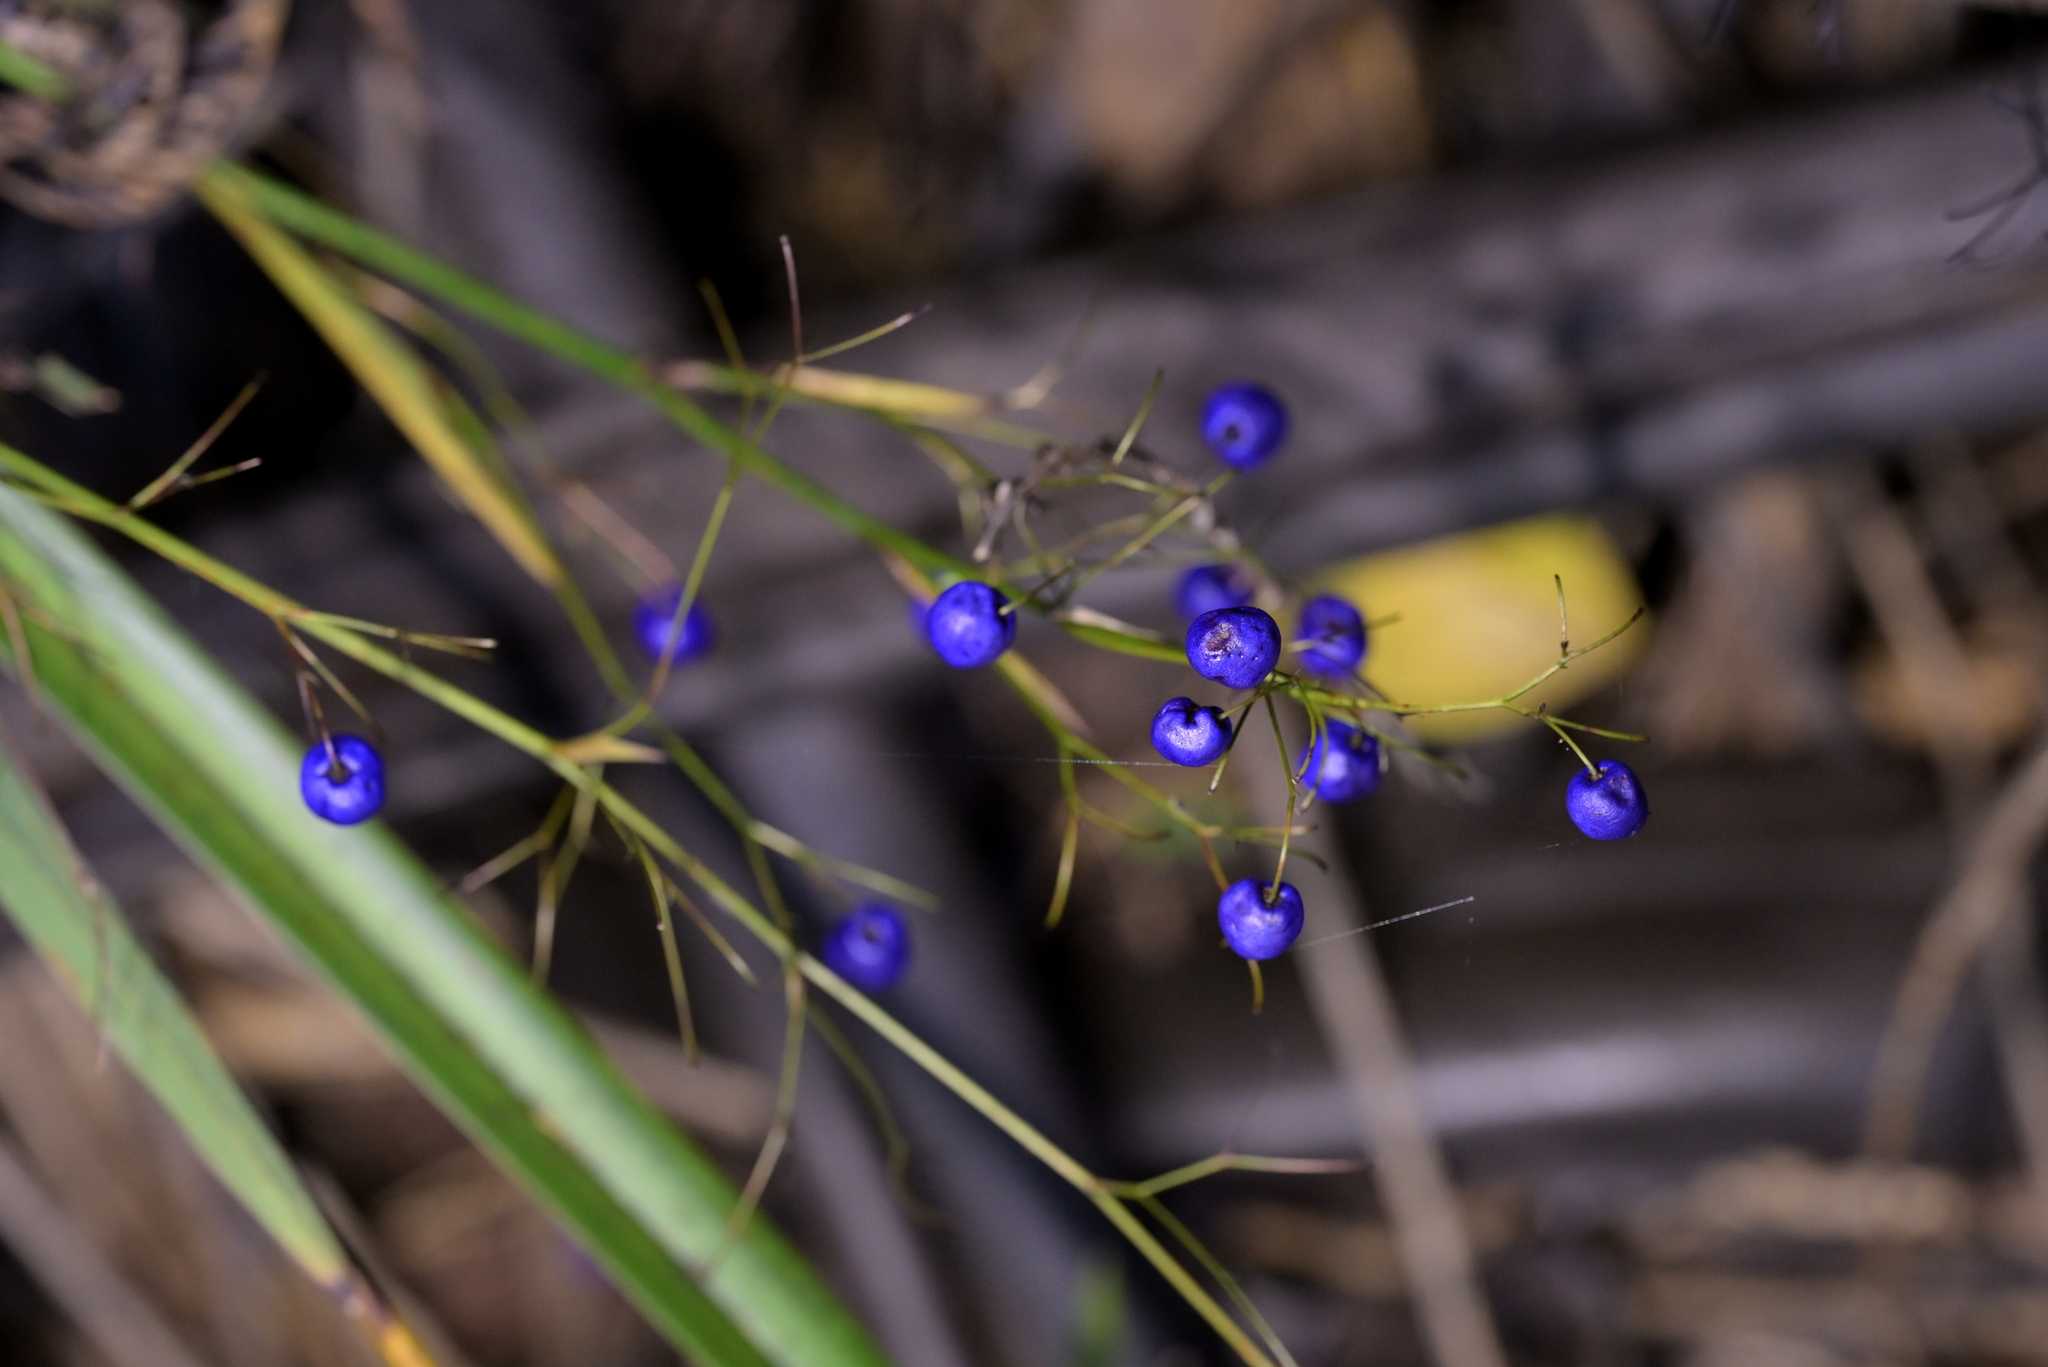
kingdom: Plantae
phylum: Tracheophyta
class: Liliopsida
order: Asparagales
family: Asphodelaceae
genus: Dianella
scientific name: Dianella nigra
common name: New zealand-blueberry
